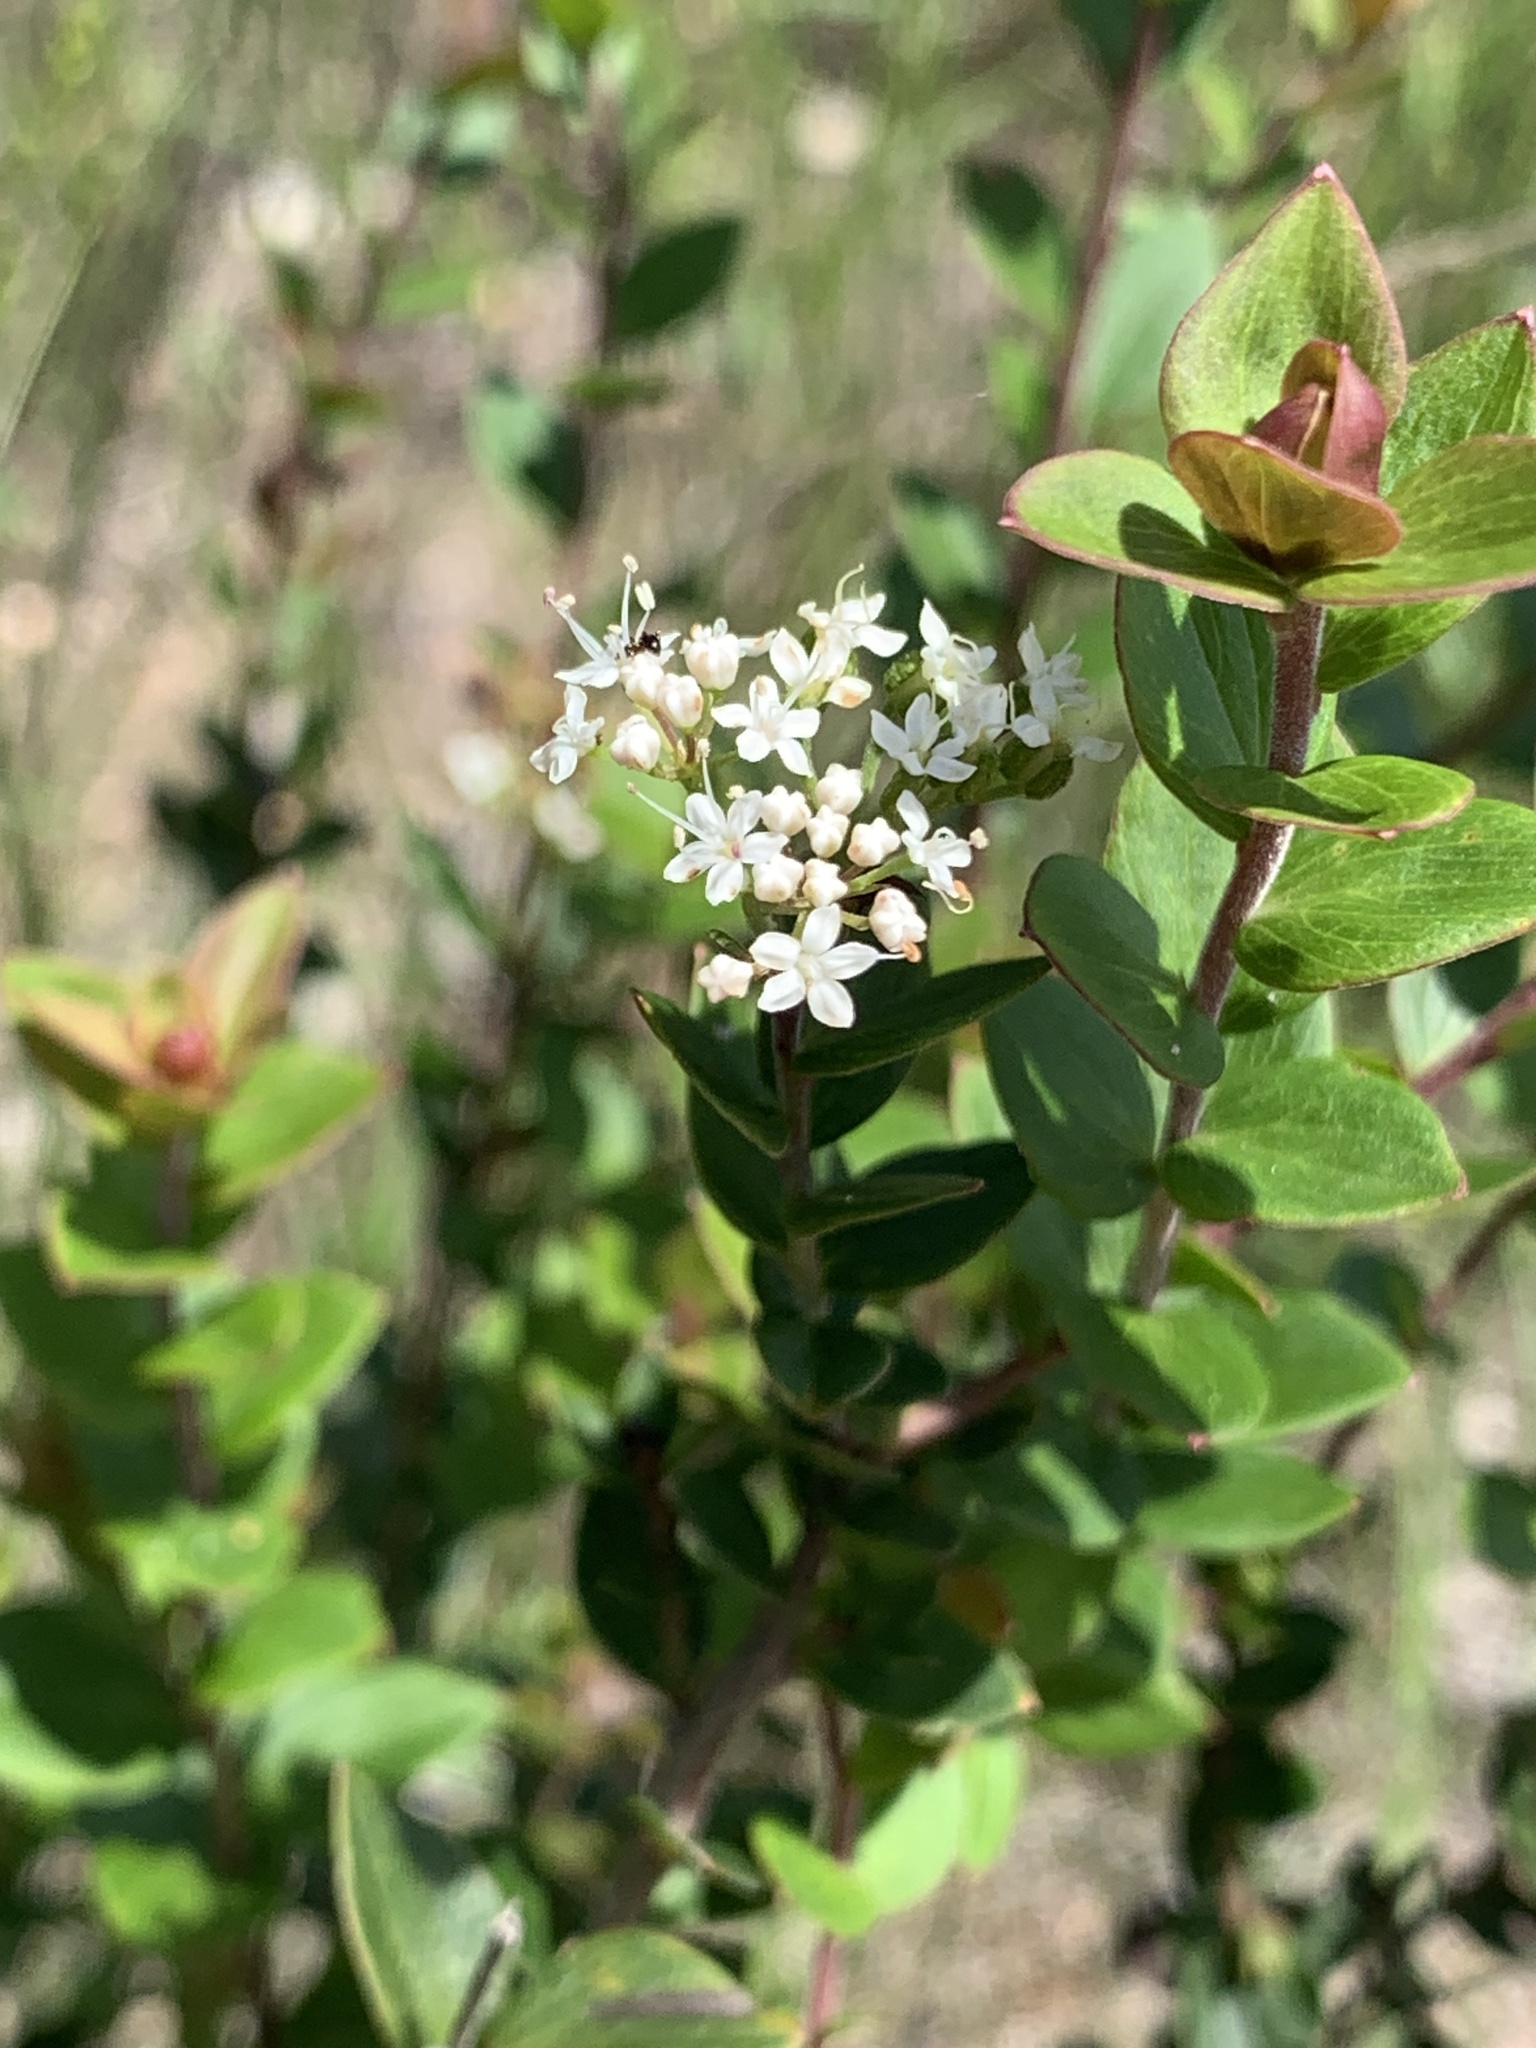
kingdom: Plantae
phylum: Tracheophyta
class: Magnoliopsida
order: Apiales
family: Apiaceae
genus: Platysace
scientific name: Platysace lanceolata
